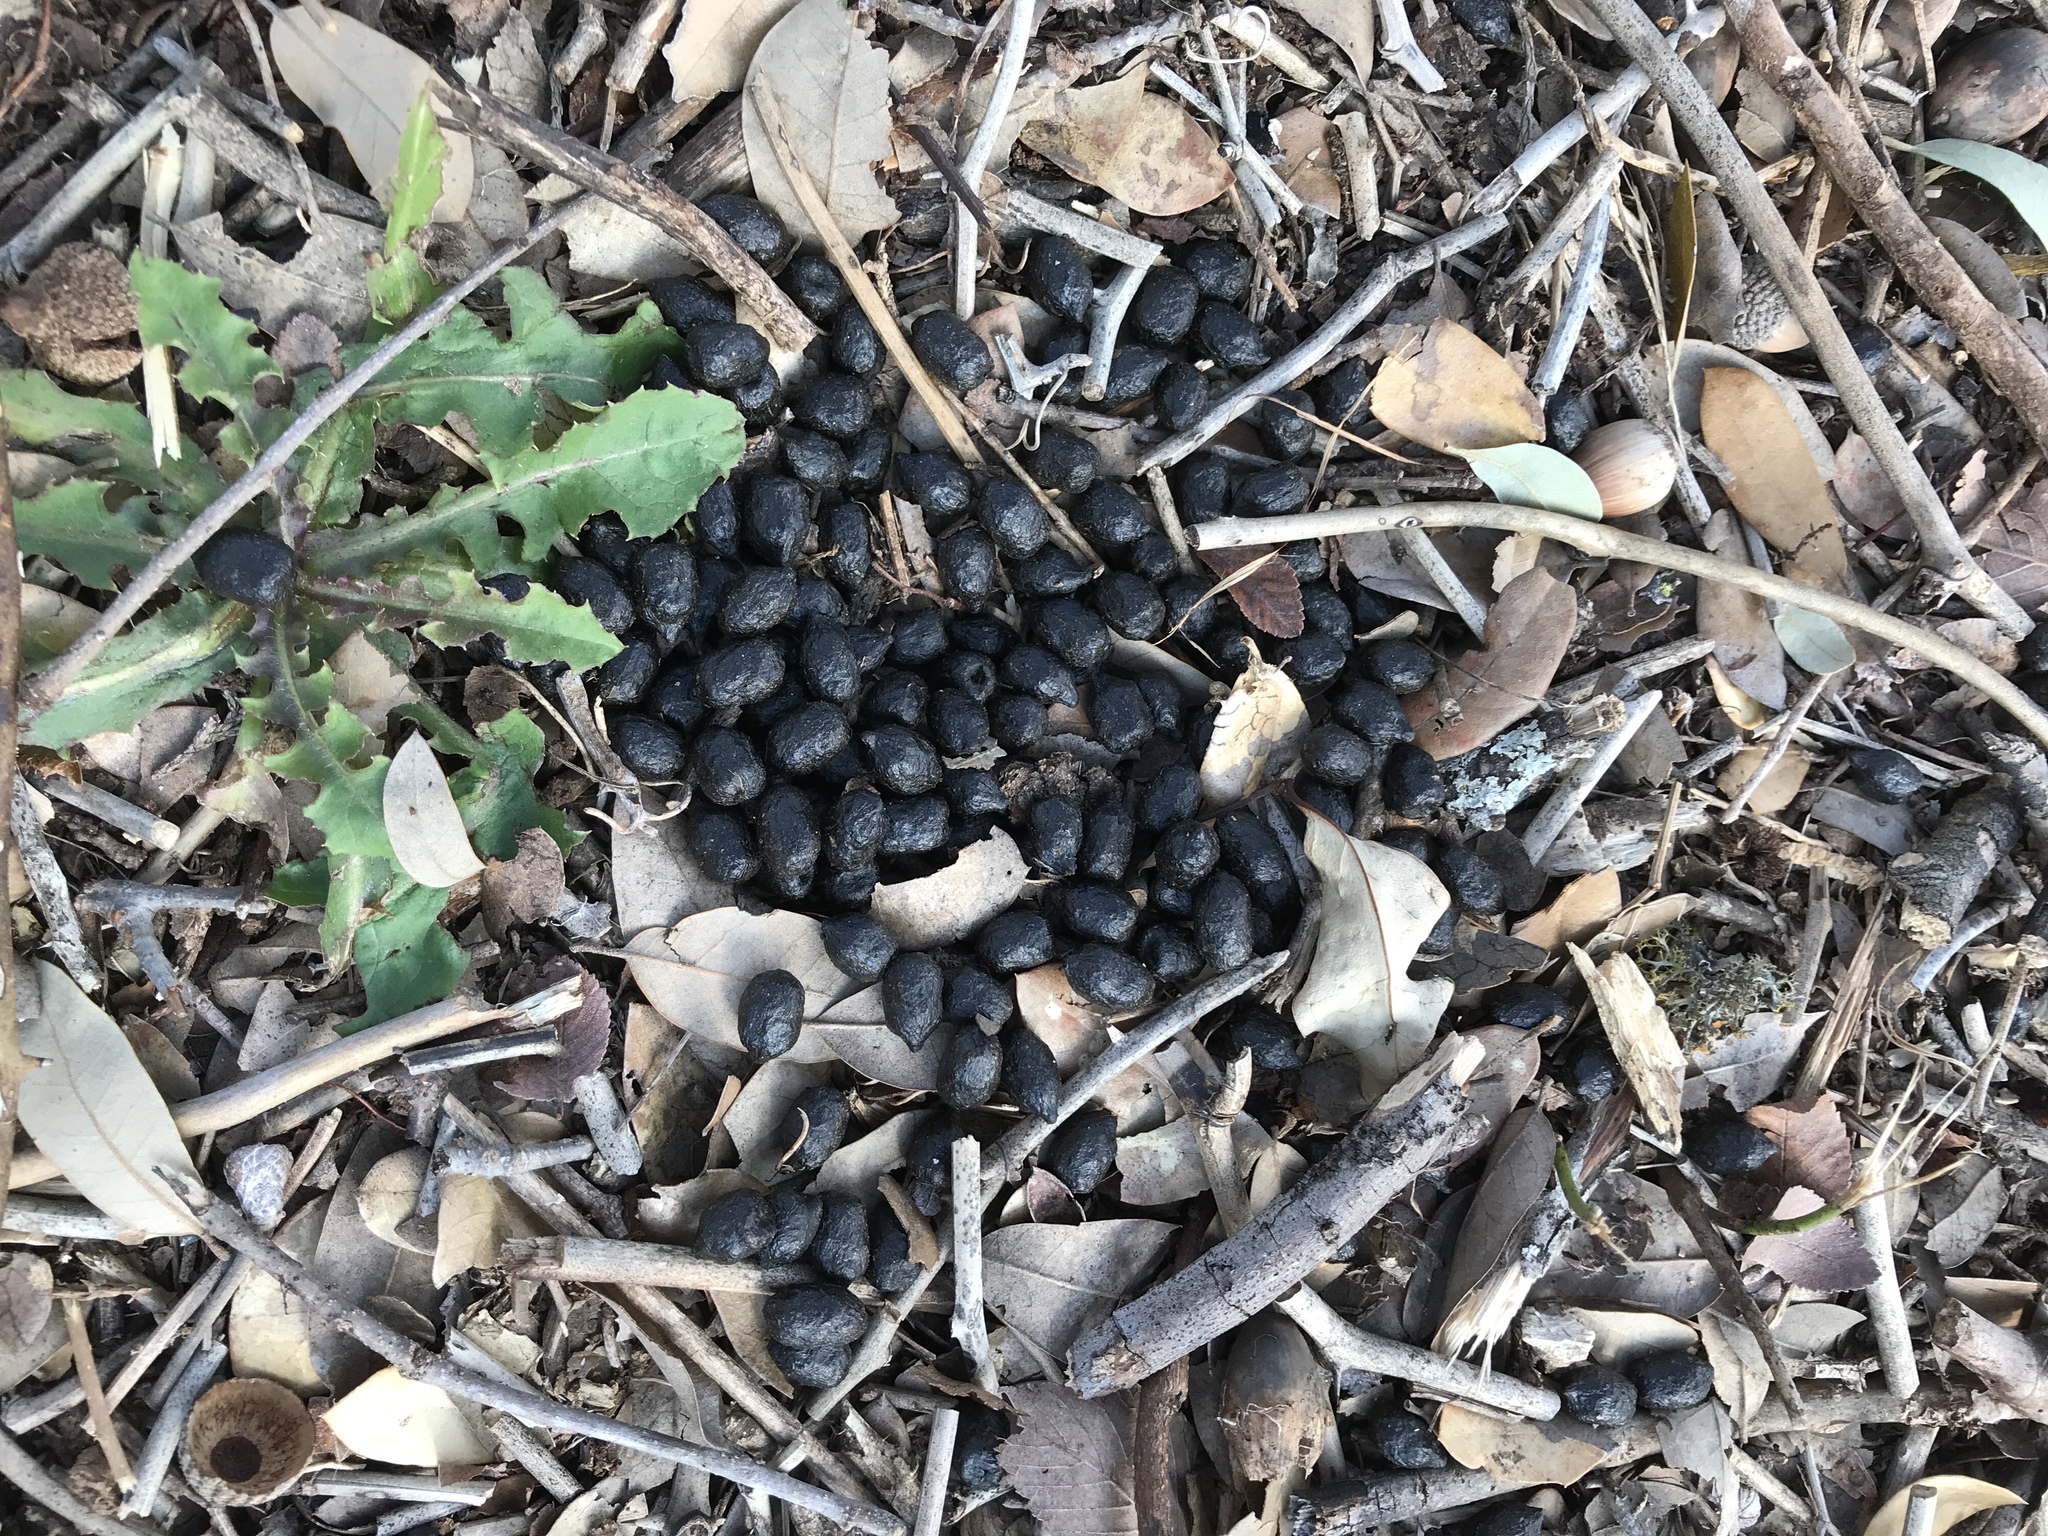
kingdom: Animalia
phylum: Chordata
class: Mammalia
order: Artiodactyla
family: Cervidae
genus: Odocoileus
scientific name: Odocoileus virginianus
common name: White-tailed deer
